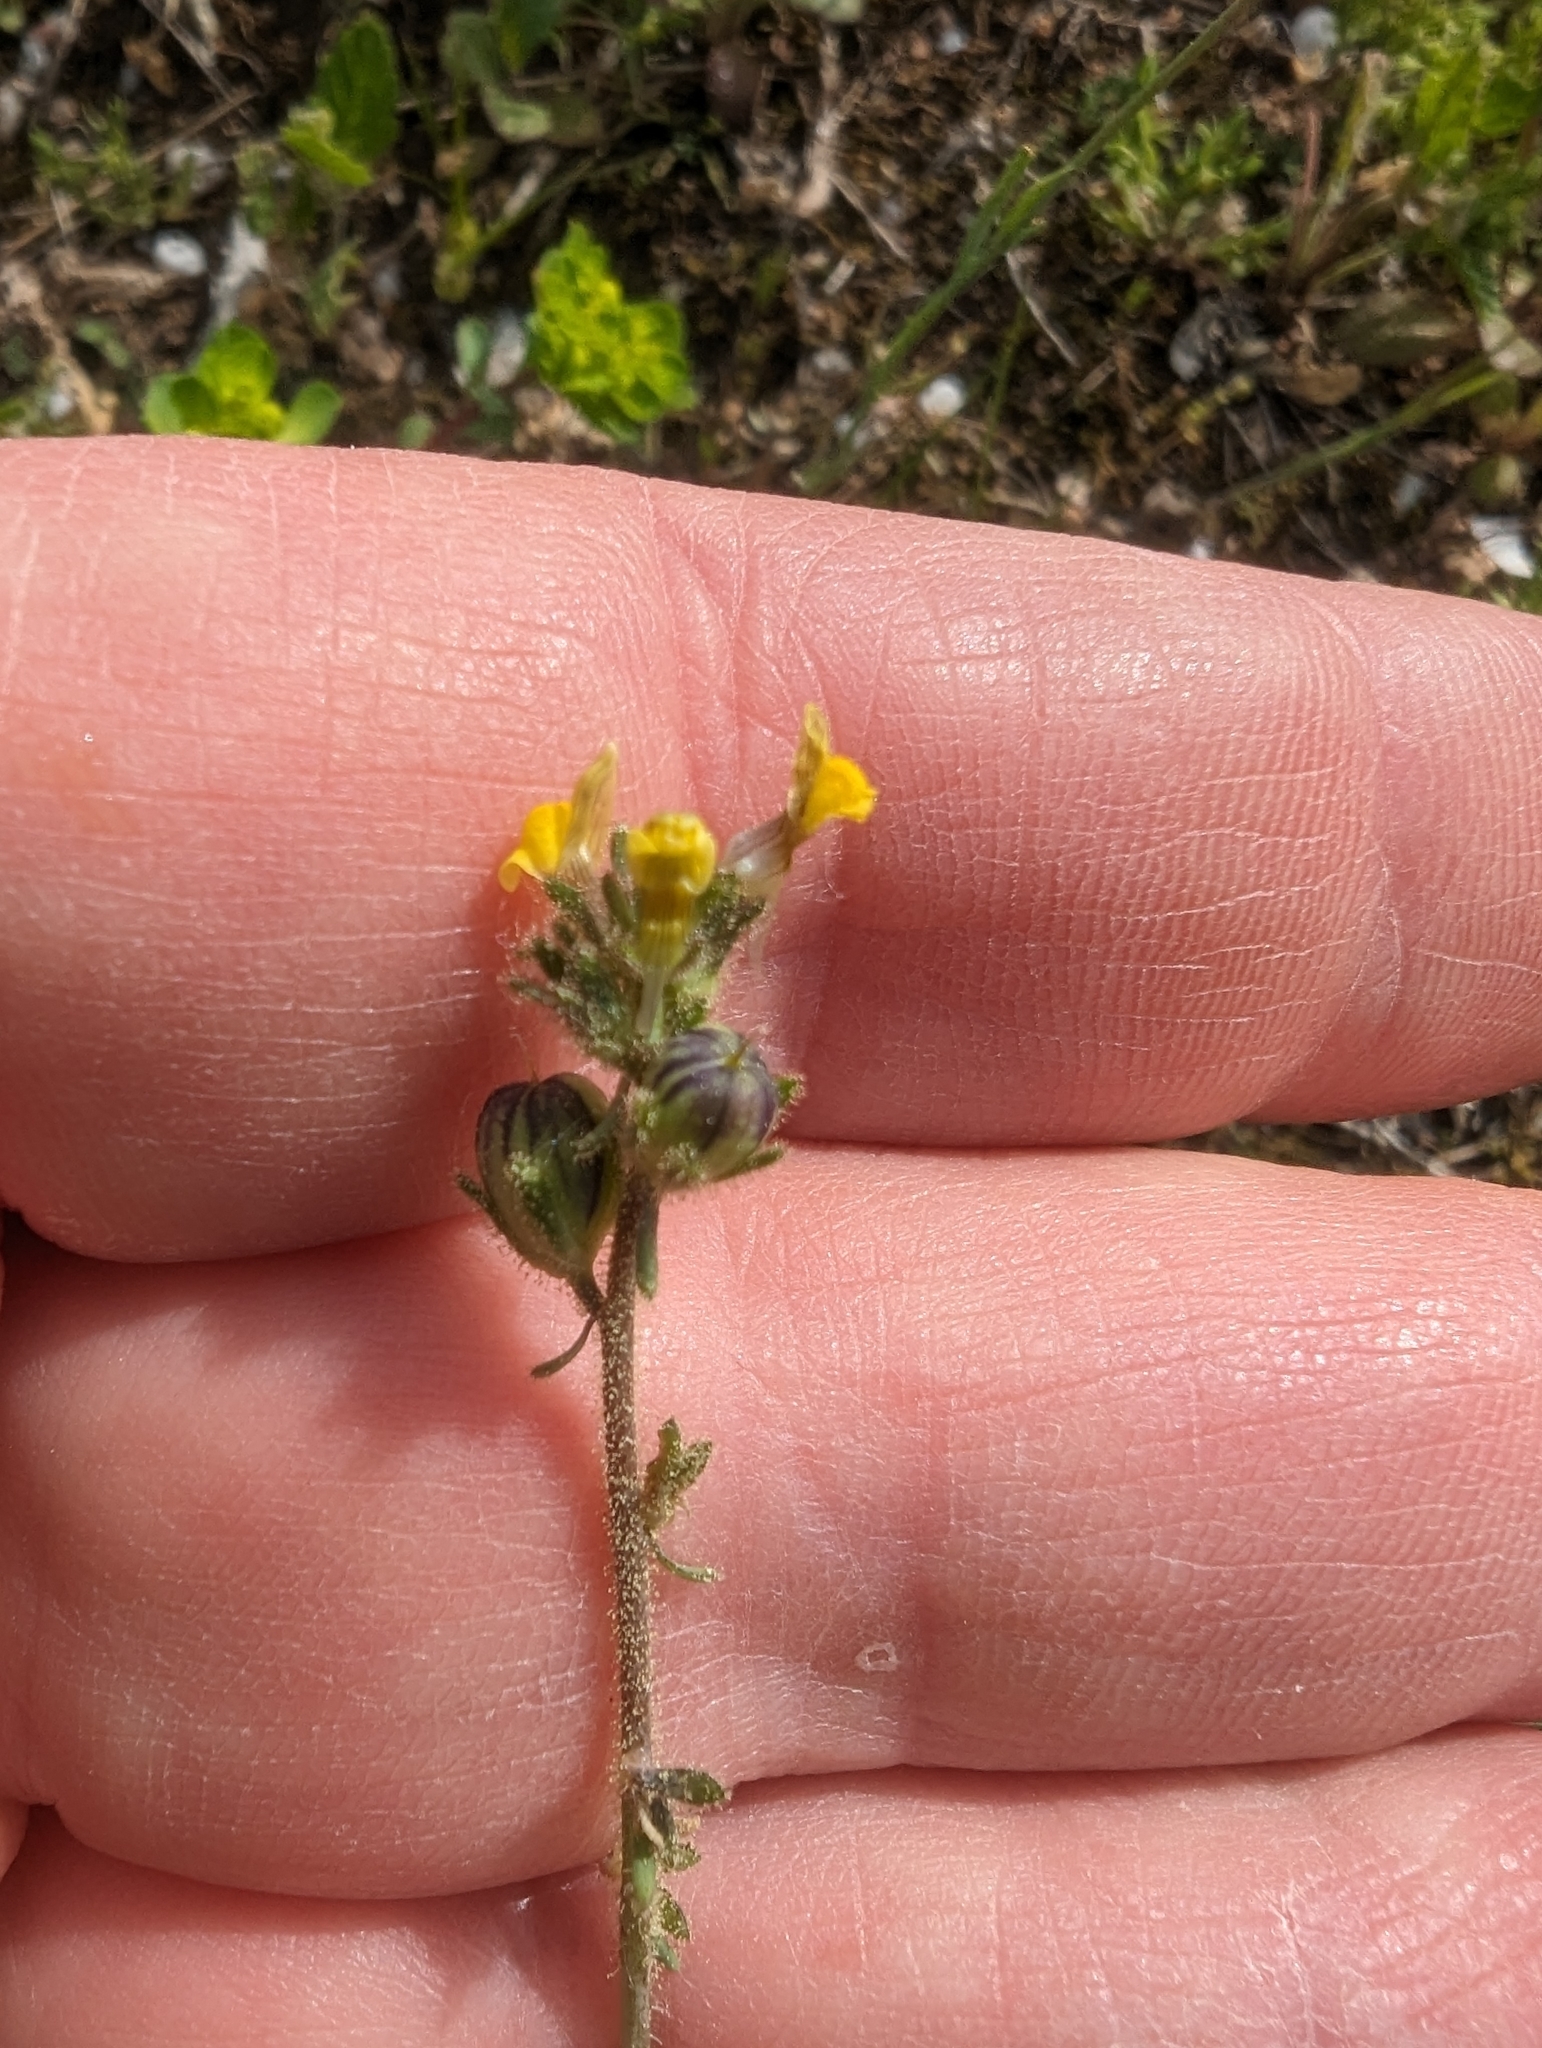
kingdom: Plantae
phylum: Tracheophyta
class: Magnoliopsida
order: Lamiales
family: Plantaginaceae
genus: Linaria
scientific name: Linaria simplex
